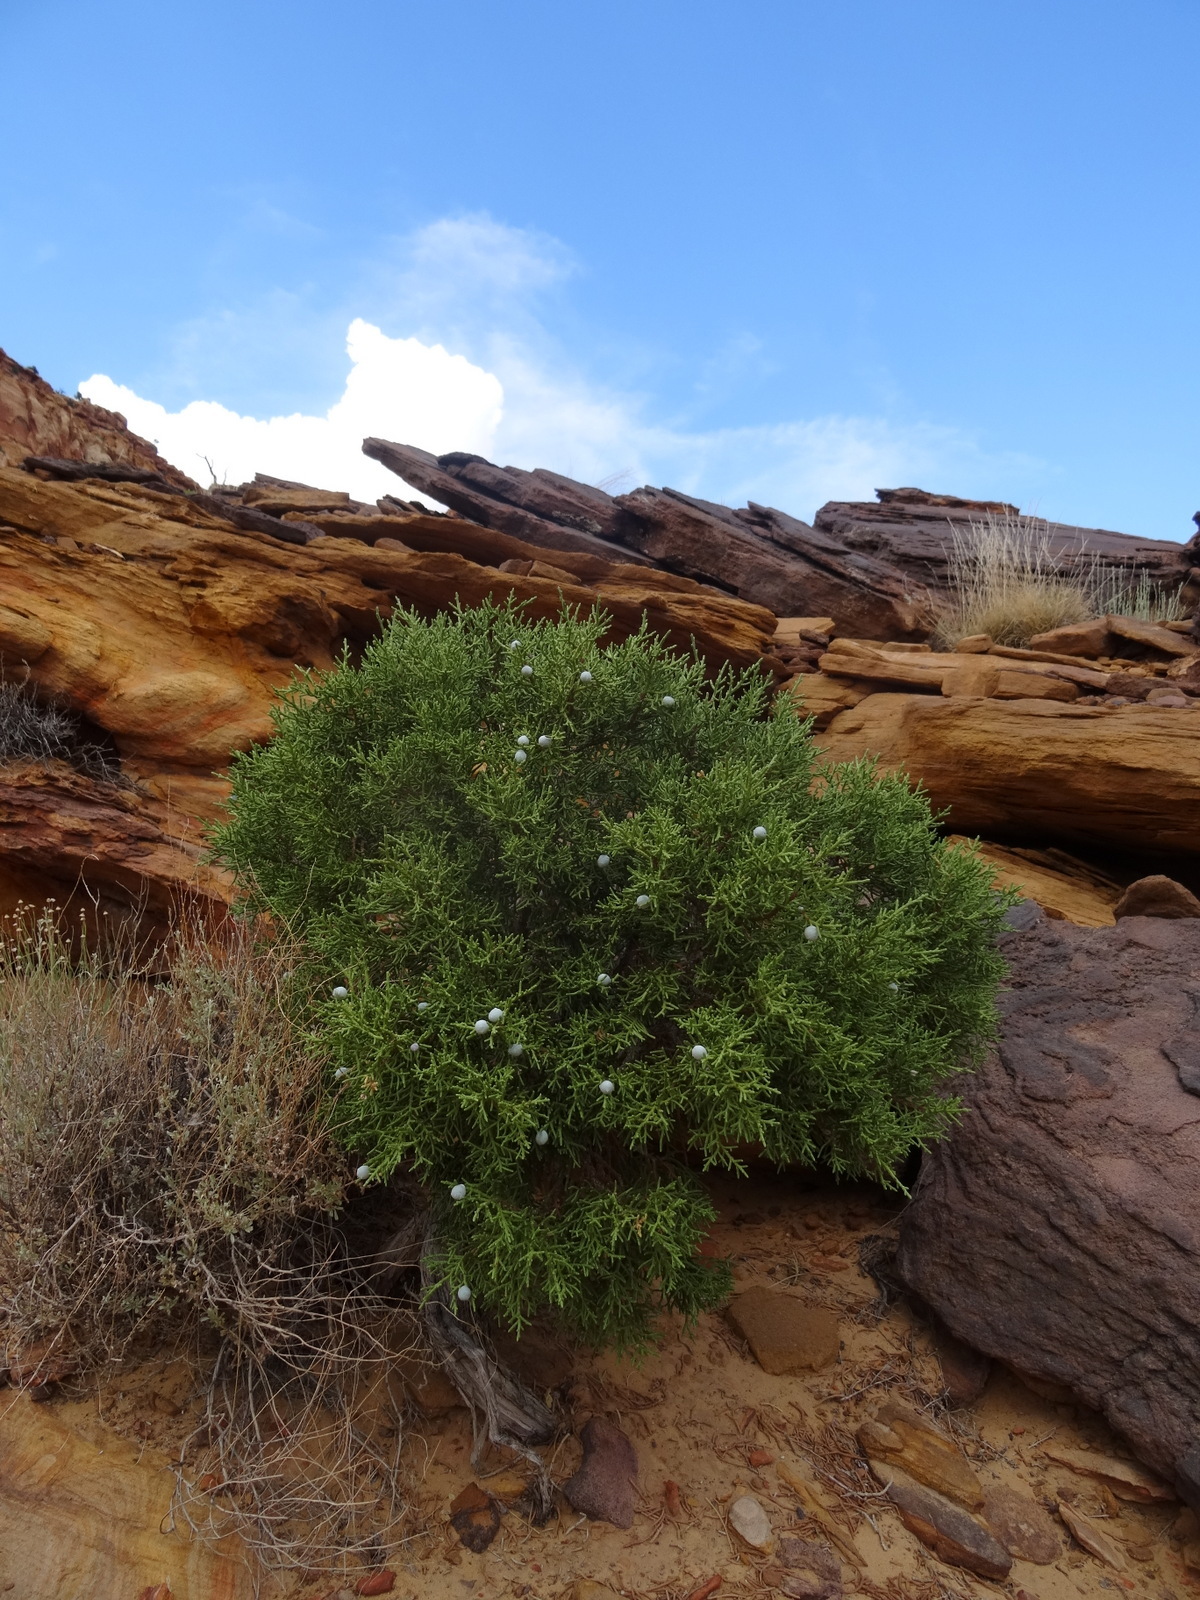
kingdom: Plantae
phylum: Tracheophyta
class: Pinopsida
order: Pinales
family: Cupressaceae
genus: Juniperus
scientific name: Juniperus osteosperma
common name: Utah juniper
